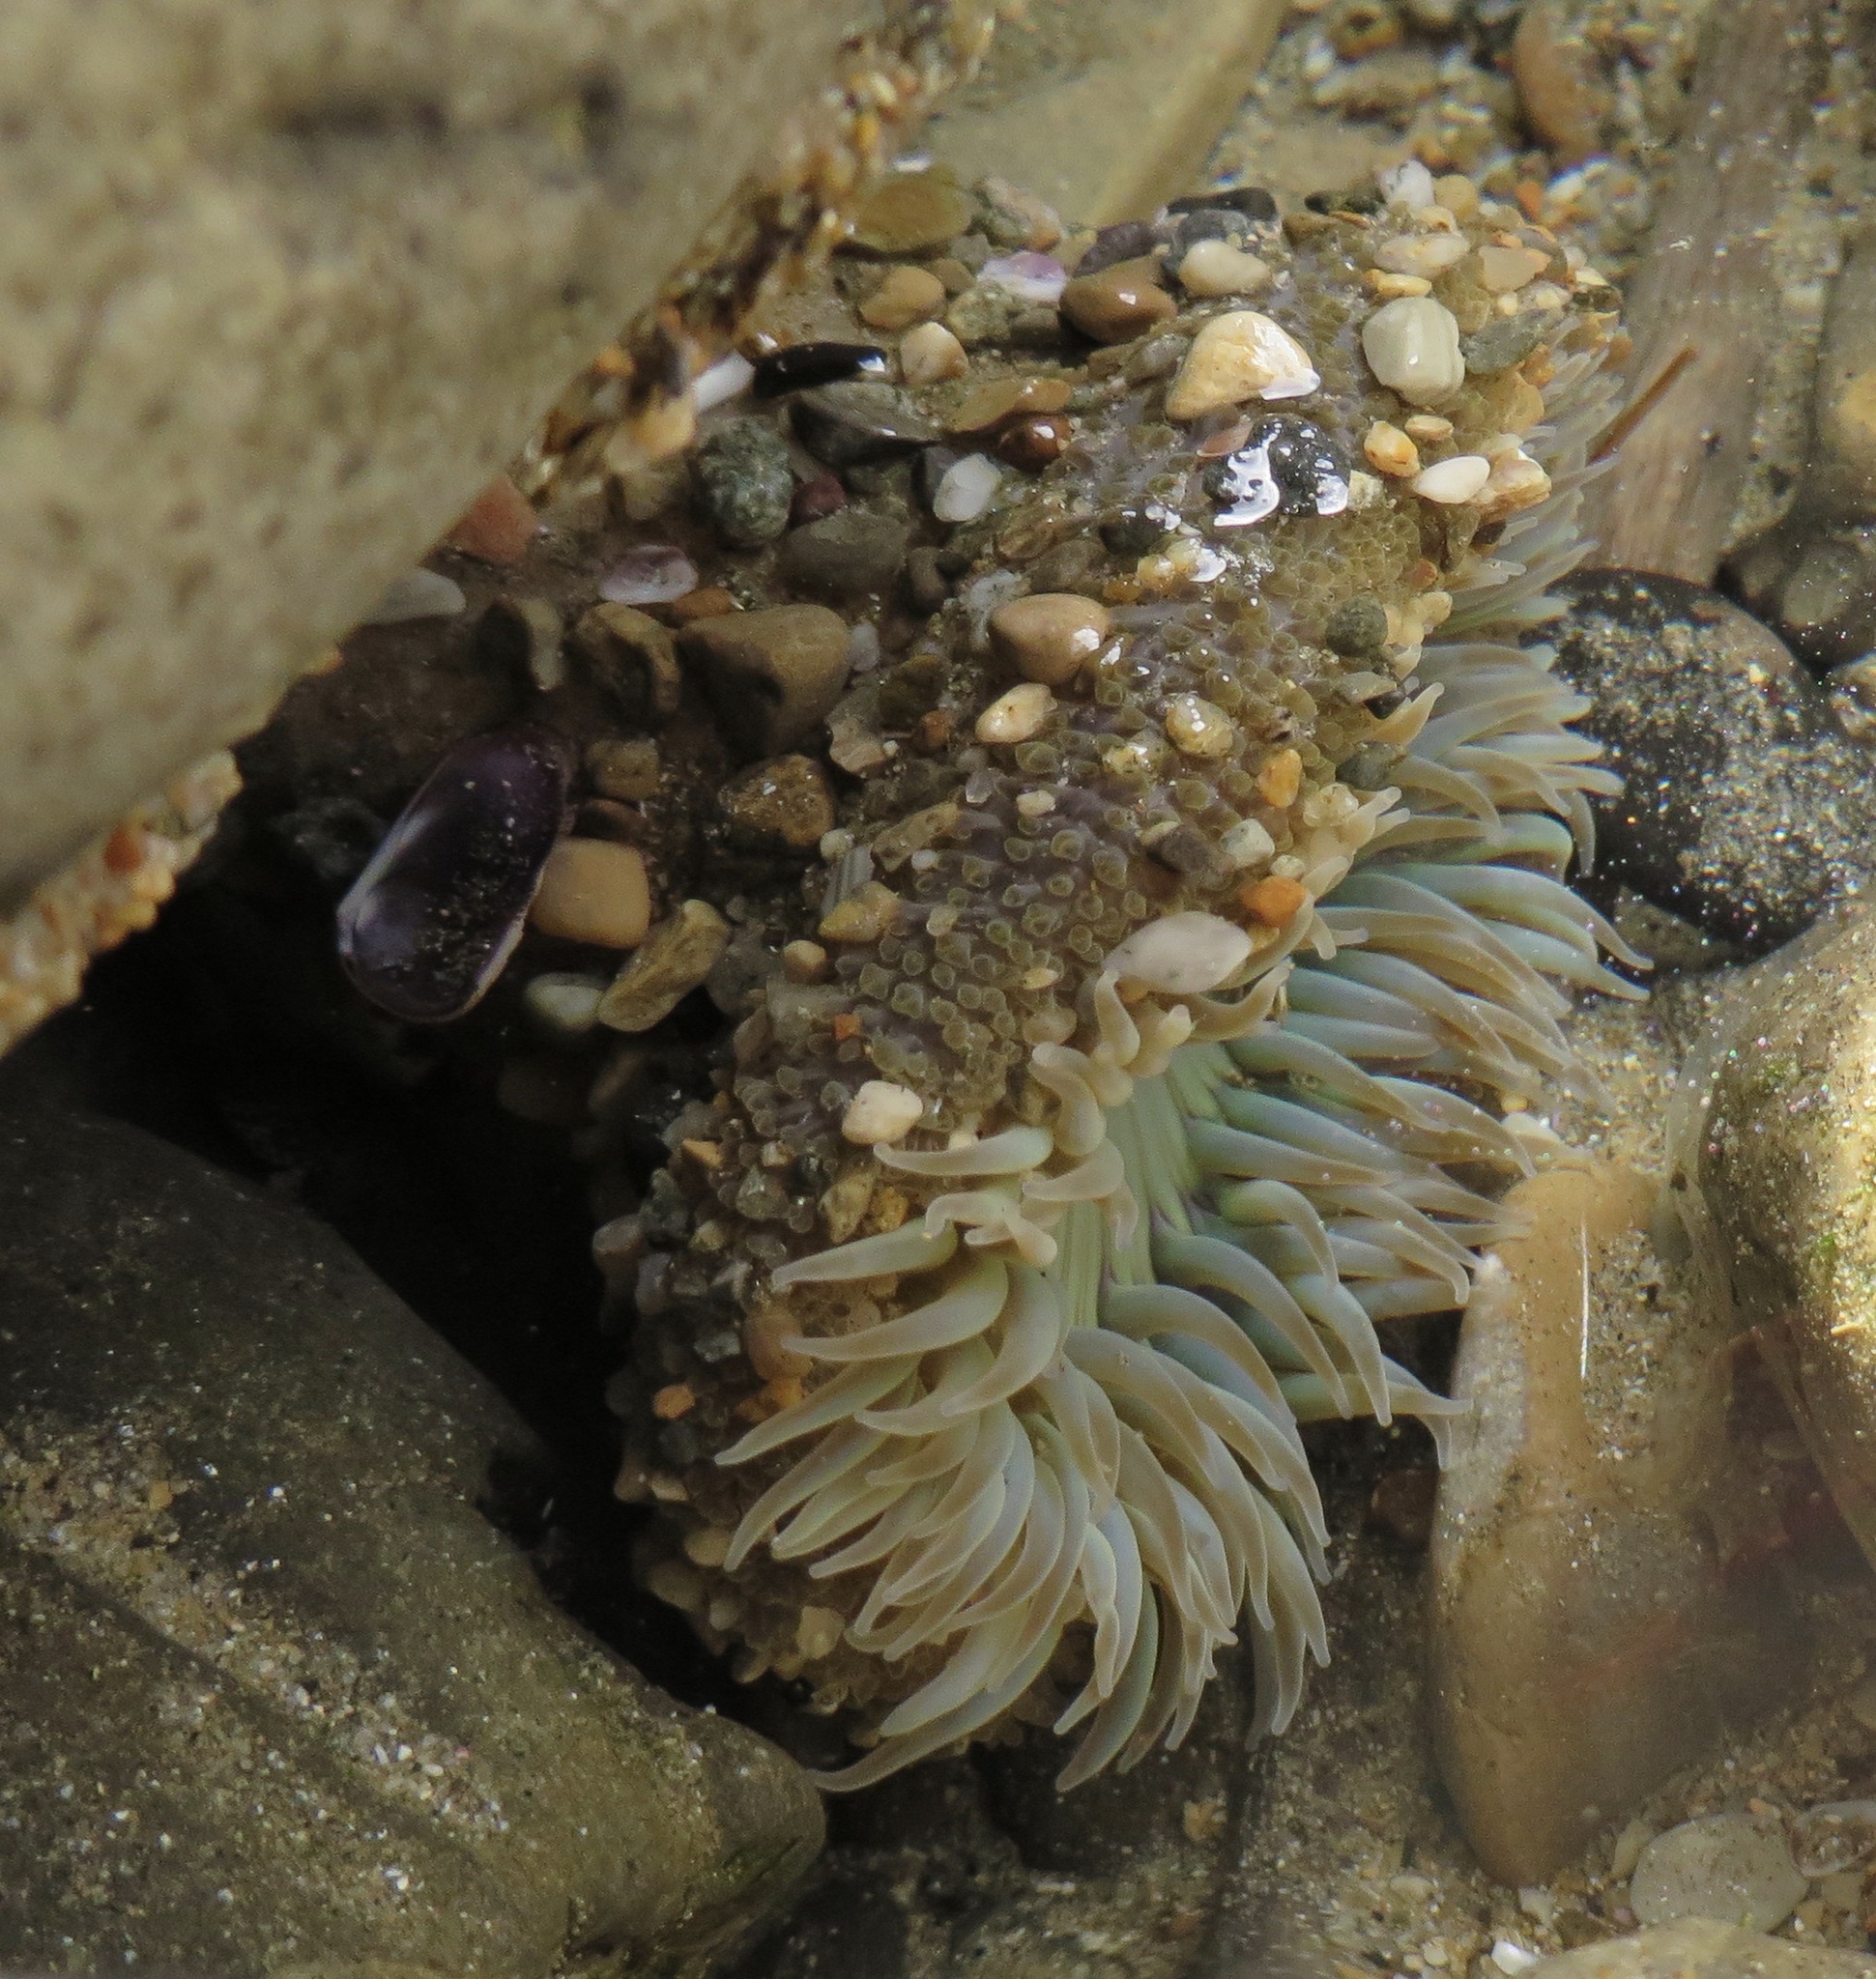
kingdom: Animalia
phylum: Cnidaria
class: Anthozoa
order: Actiniaria
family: Actiniidae
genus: Anthopleura
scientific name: Anthopleura sola
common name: Sun anemone
